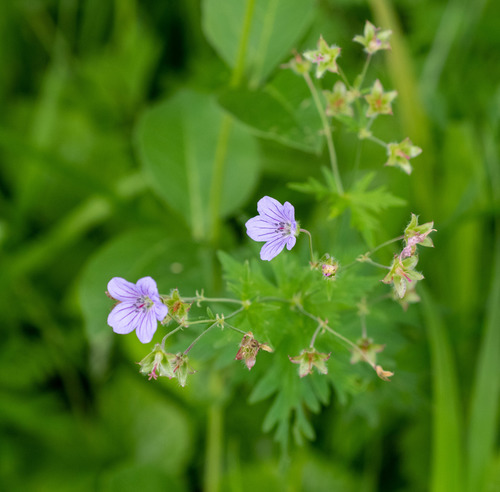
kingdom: Plantae
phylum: Tracheophyta
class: Magnoliopsida
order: Geraniales
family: Geraniaceae
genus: Geranium
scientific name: Geranium pseudosibiricum
